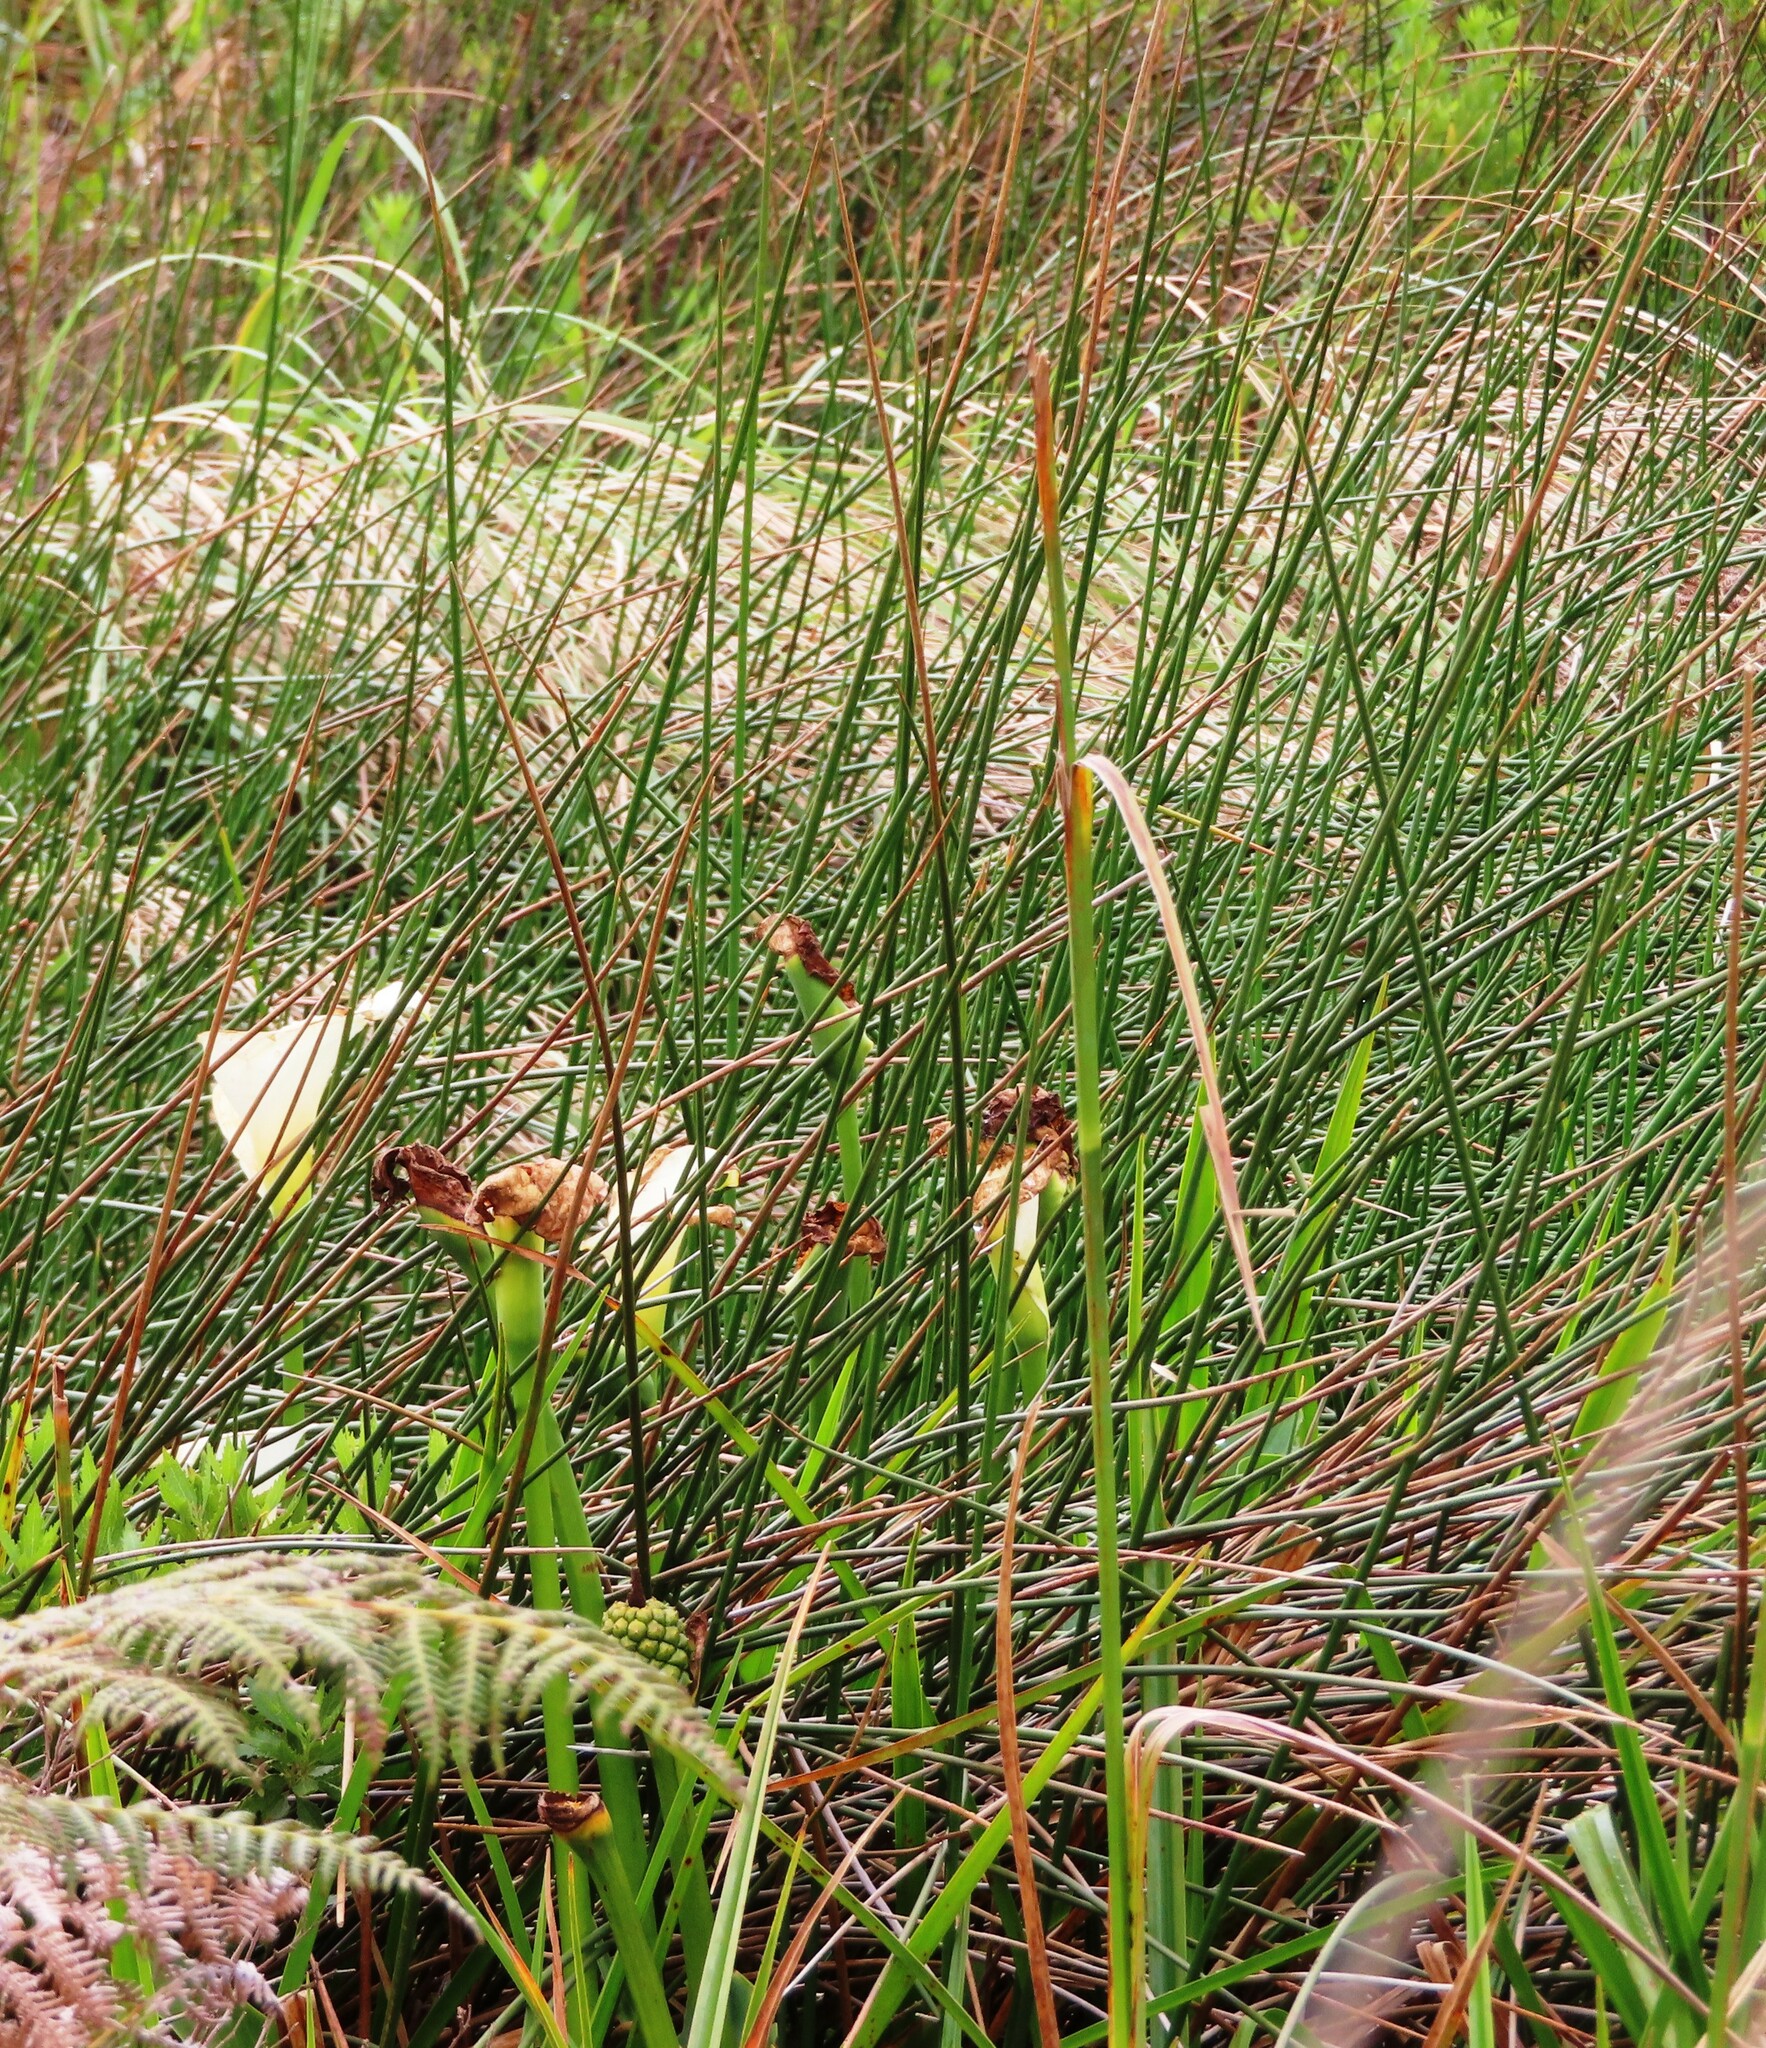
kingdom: Plantae
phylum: Tracheophyta
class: Liliopsida
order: Alismatales
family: Araceae
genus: Zantedeschia
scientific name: Zantedeschia aethiopica
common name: Altar-lily
